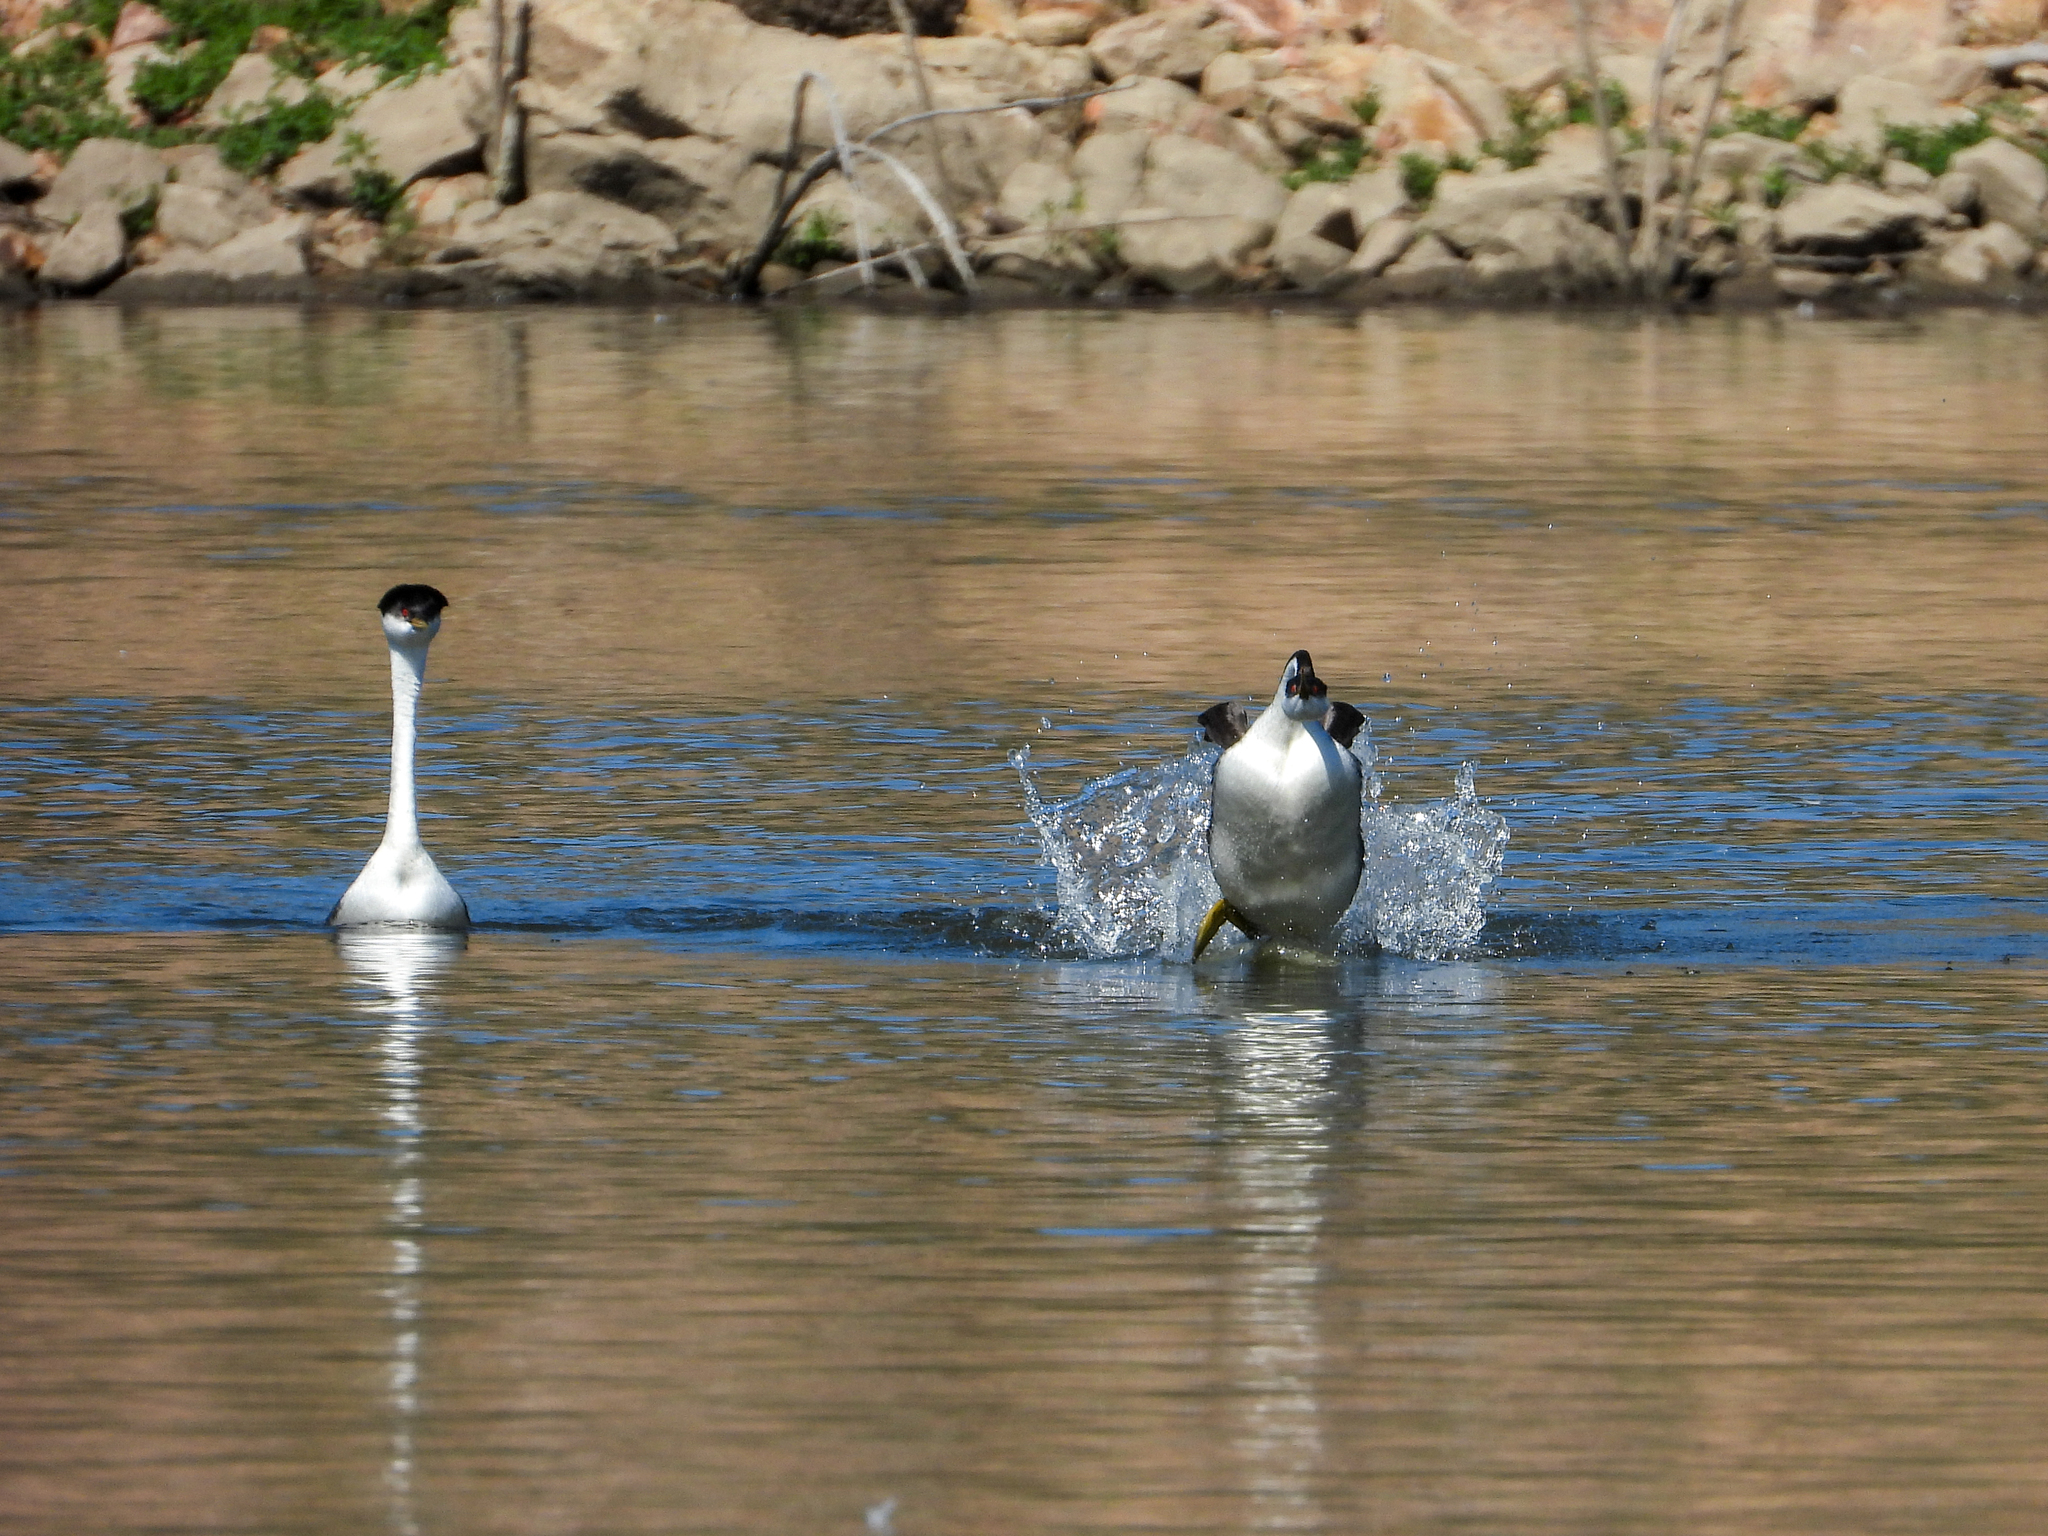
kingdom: Animalia
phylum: Chordata
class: Aves
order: Podicipediformes
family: Podicipedidae
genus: Aechmophorus
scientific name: Aechmophorus occidentalis
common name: Western grebe
